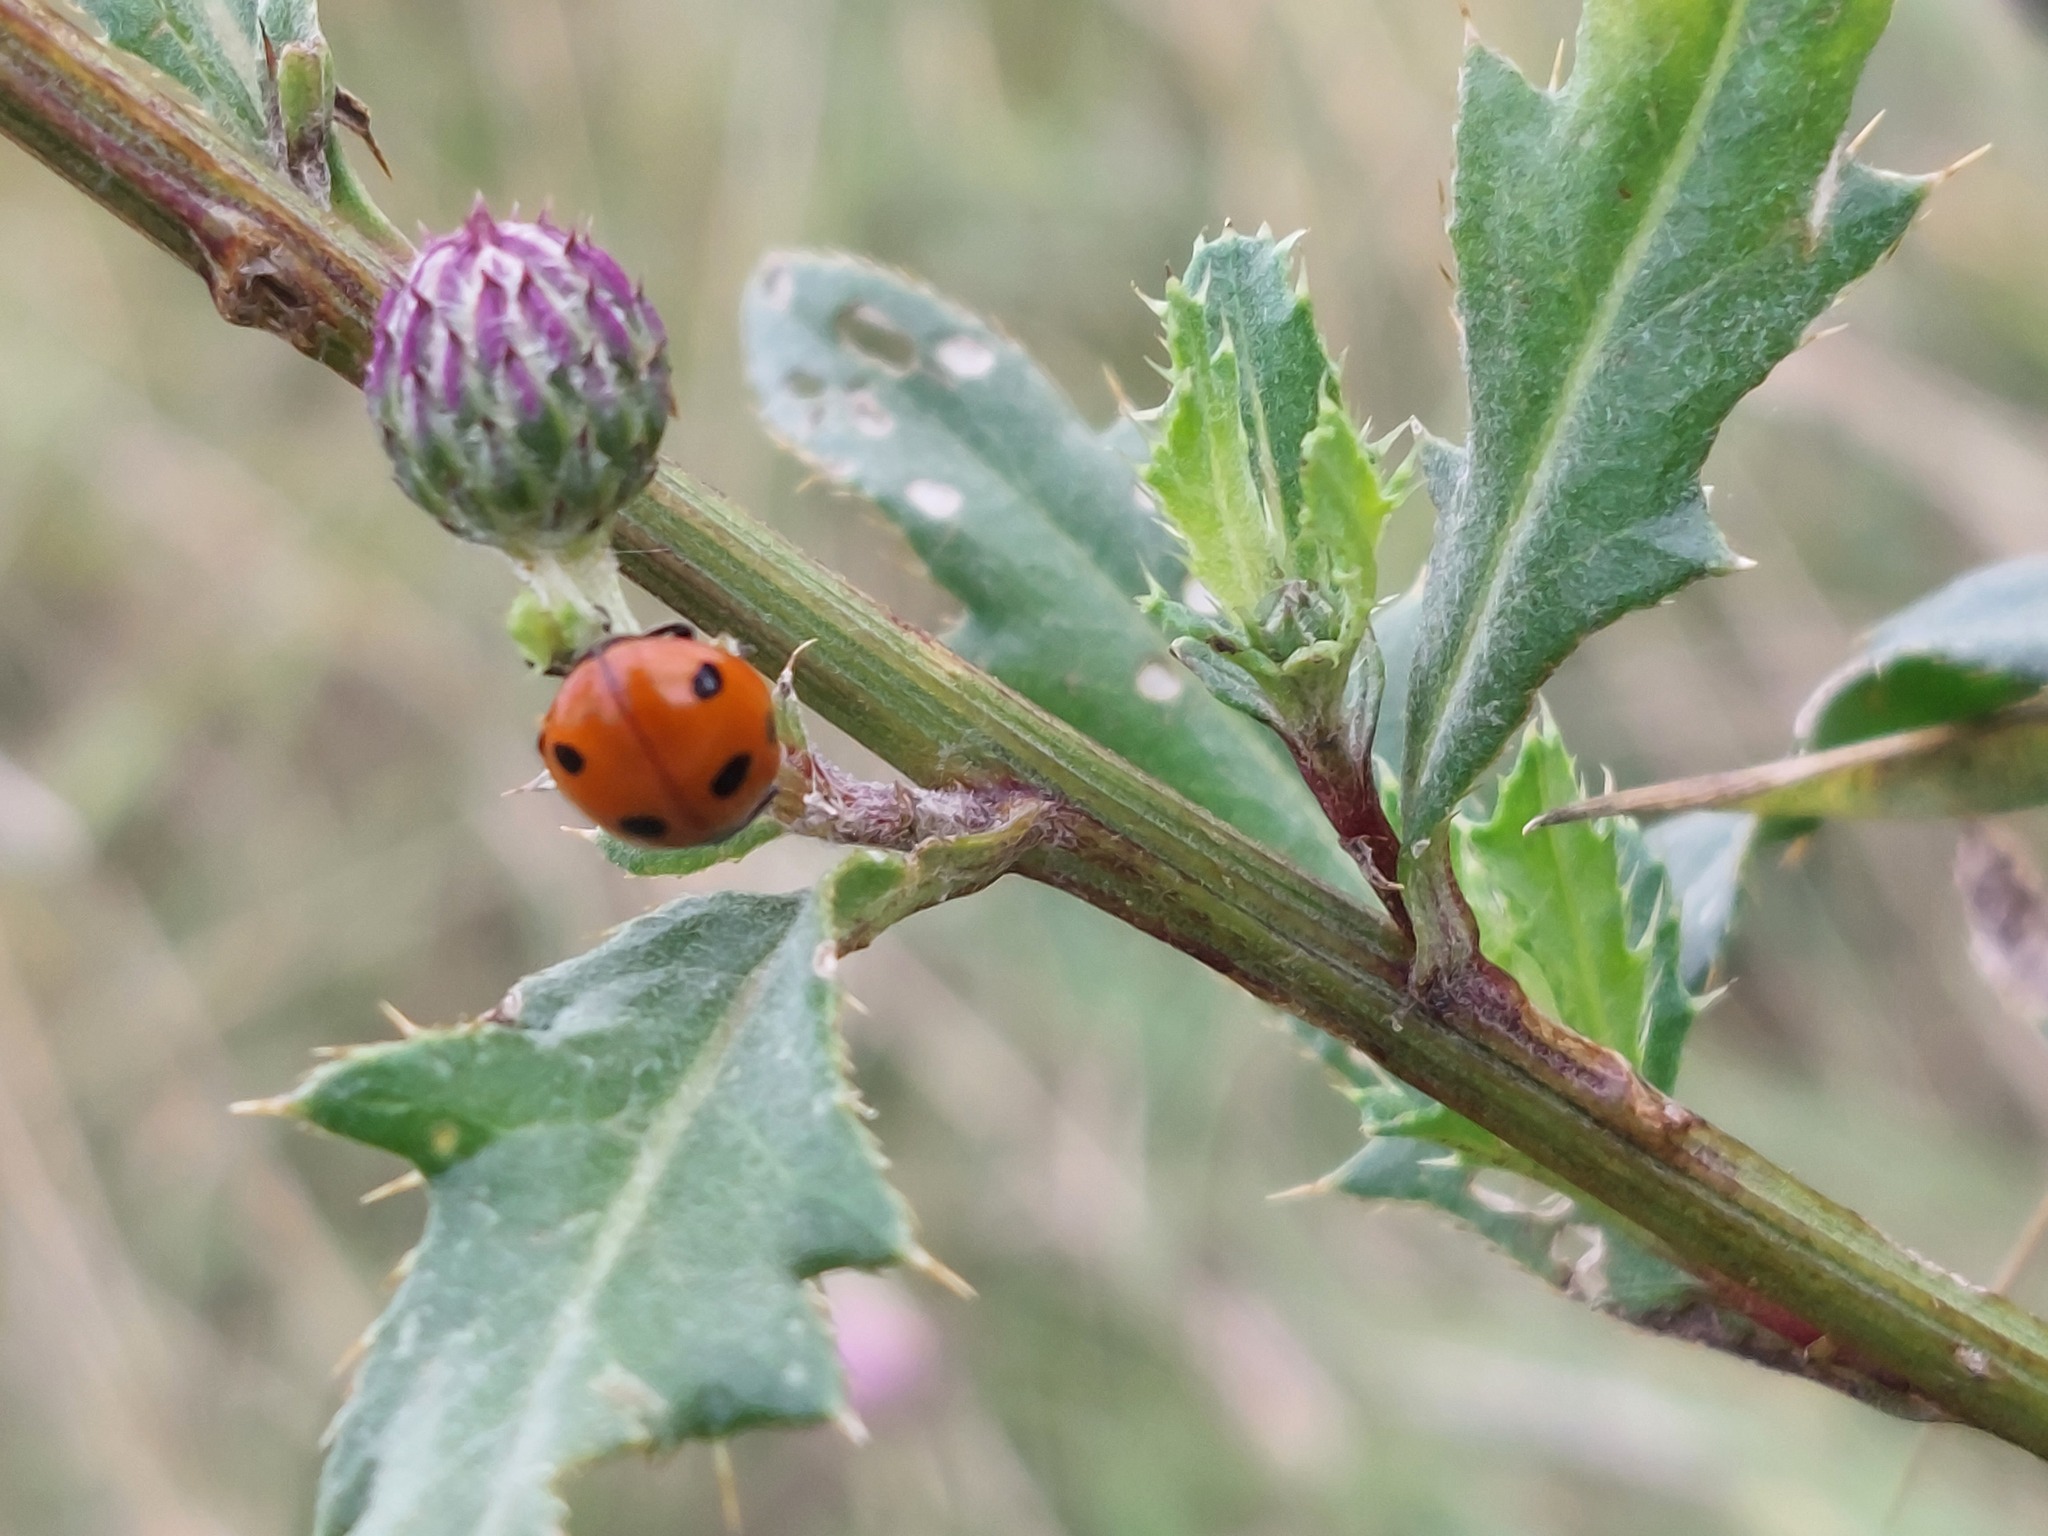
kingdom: Animalia
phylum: Arthropoda
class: Insecta
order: Coleoptera
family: Coccinellidae
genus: Coccinella
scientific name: Coccinella septempunctata
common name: Sevenspotted lady beetle
